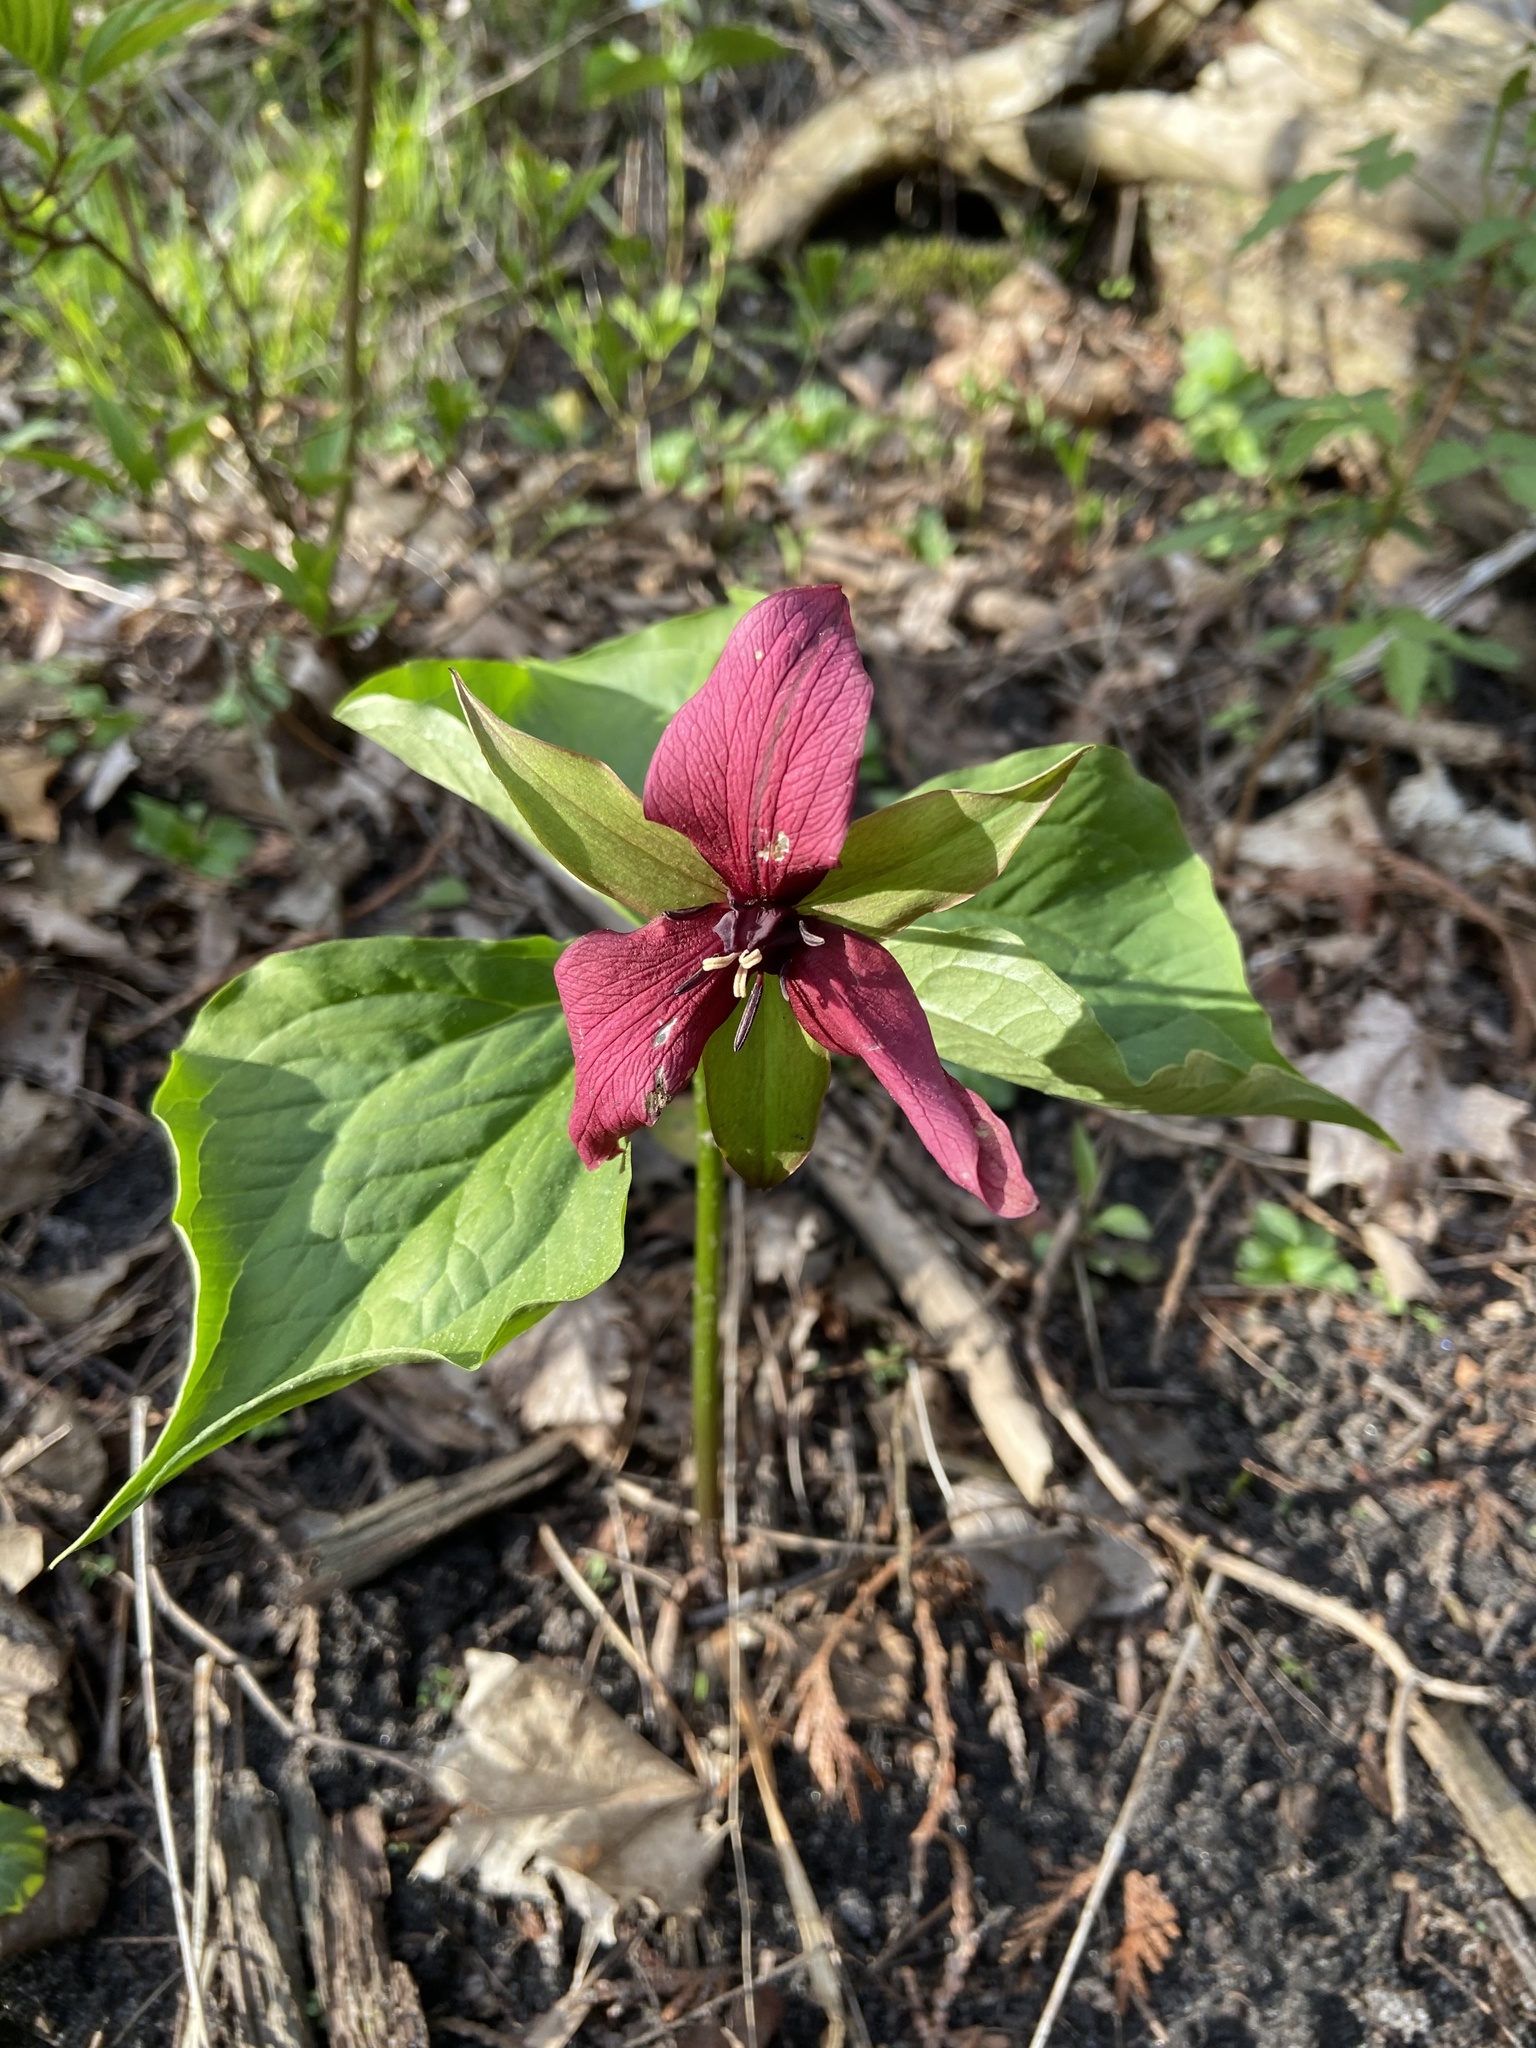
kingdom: Plantae
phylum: Tracheophyta
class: Liliopsida
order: Liliales
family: Melanthiaceae
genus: Trillium
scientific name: Trillium erectum
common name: Purple trillium
